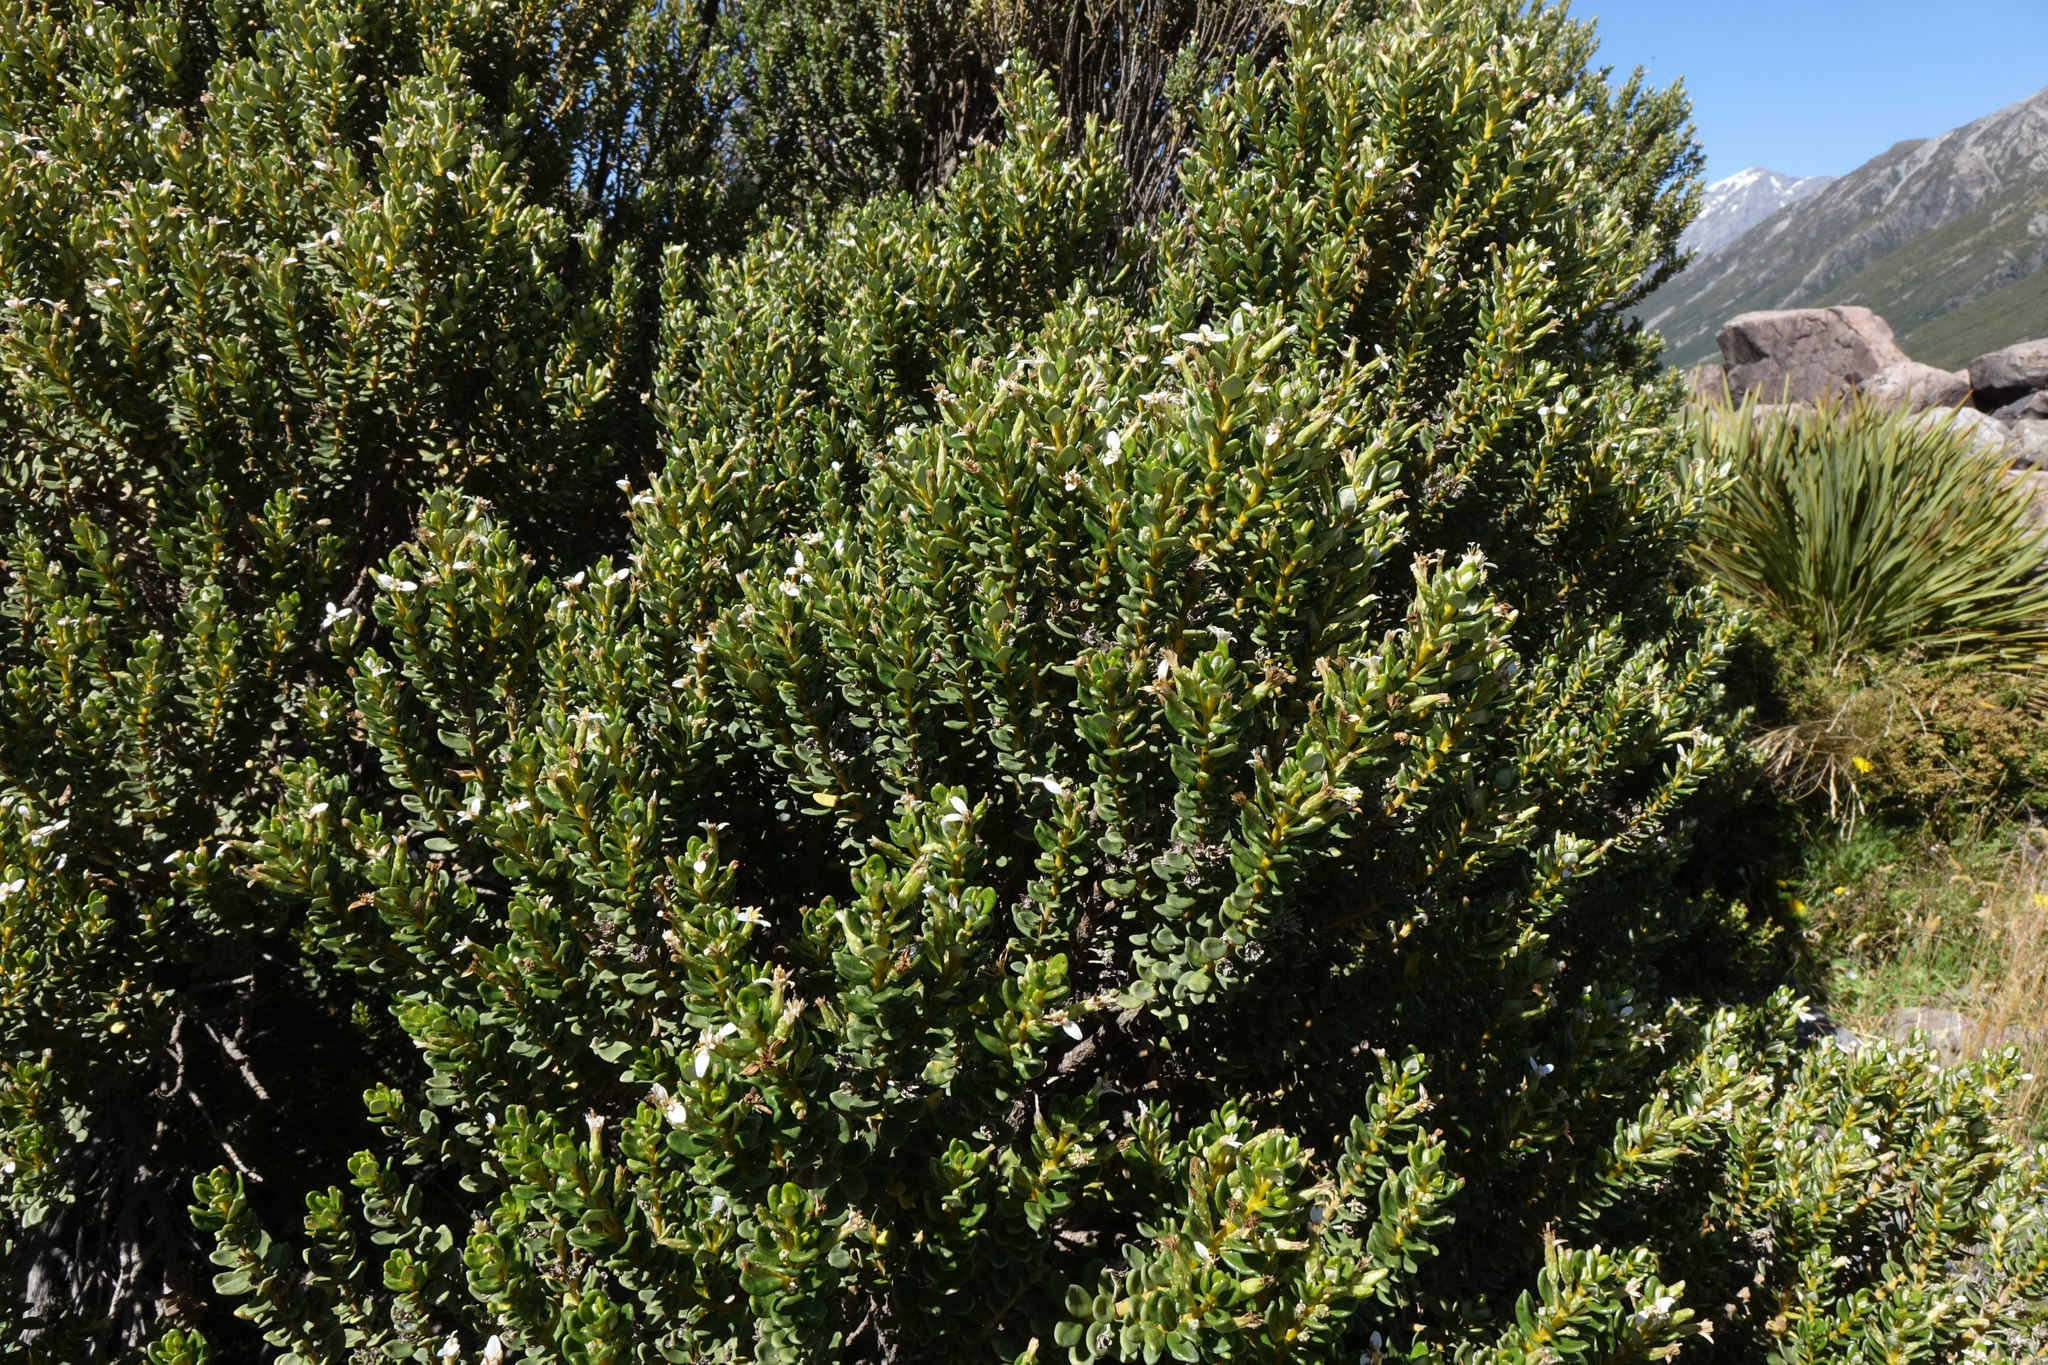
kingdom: Plantae
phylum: Tracheophyta
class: Magnoliopsida
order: Asterales
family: Asteraceae
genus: Olearia
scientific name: Olearia nummularifolia
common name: Sticky daisybush
